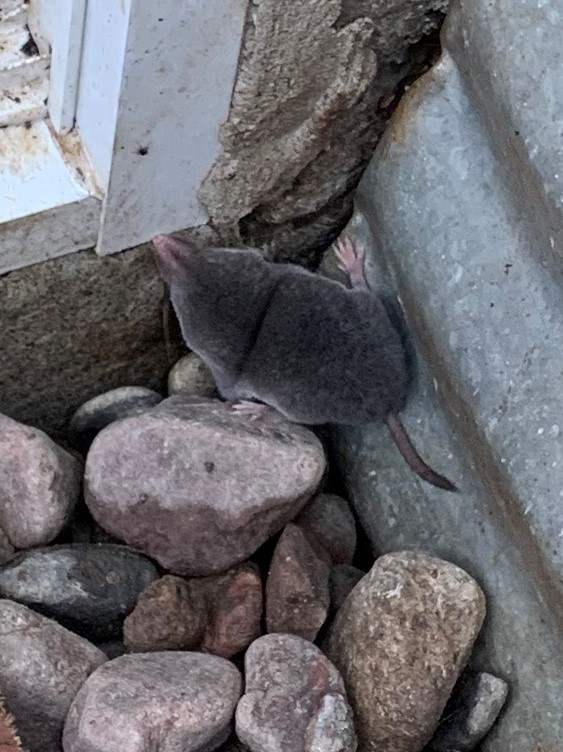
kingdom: Animalia
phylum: Chordata
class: Mammalia
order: Soricomorpha
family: Soricidae
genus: Blarina
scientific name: Blarina brevicauda
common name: Northern short-tailed shrew
